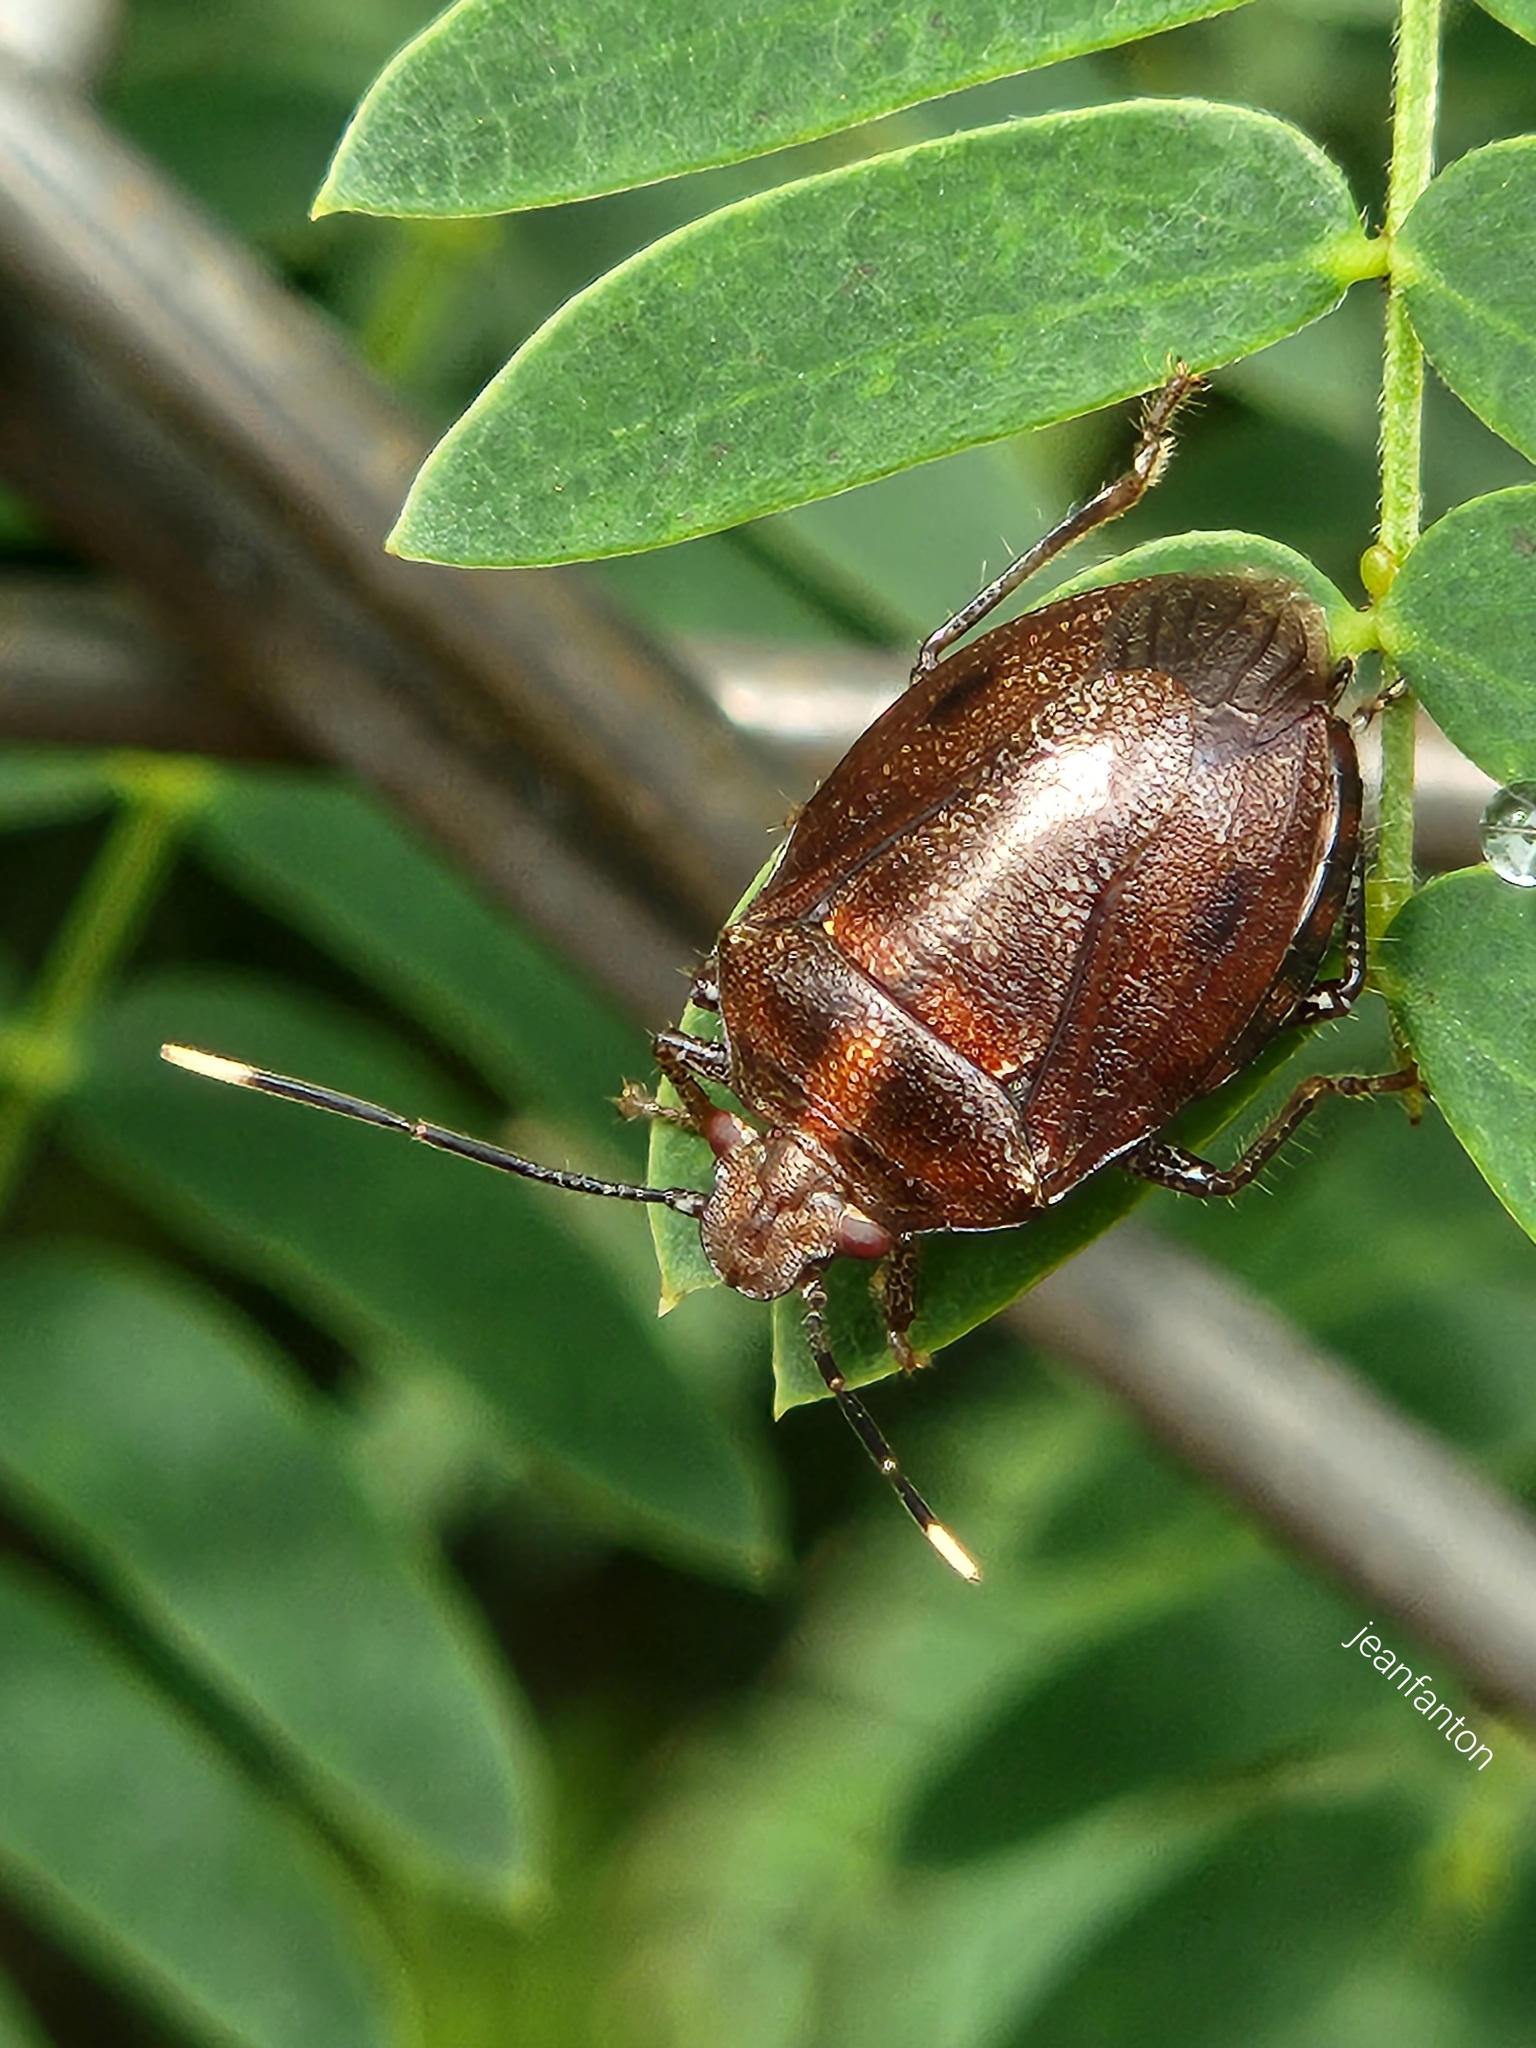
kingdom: Animalia
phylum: Arthropoda
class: Insecta
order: Hemiptera
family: Pentatomidae
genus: Antiteuchus
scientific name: Antiteuchus tripterus
